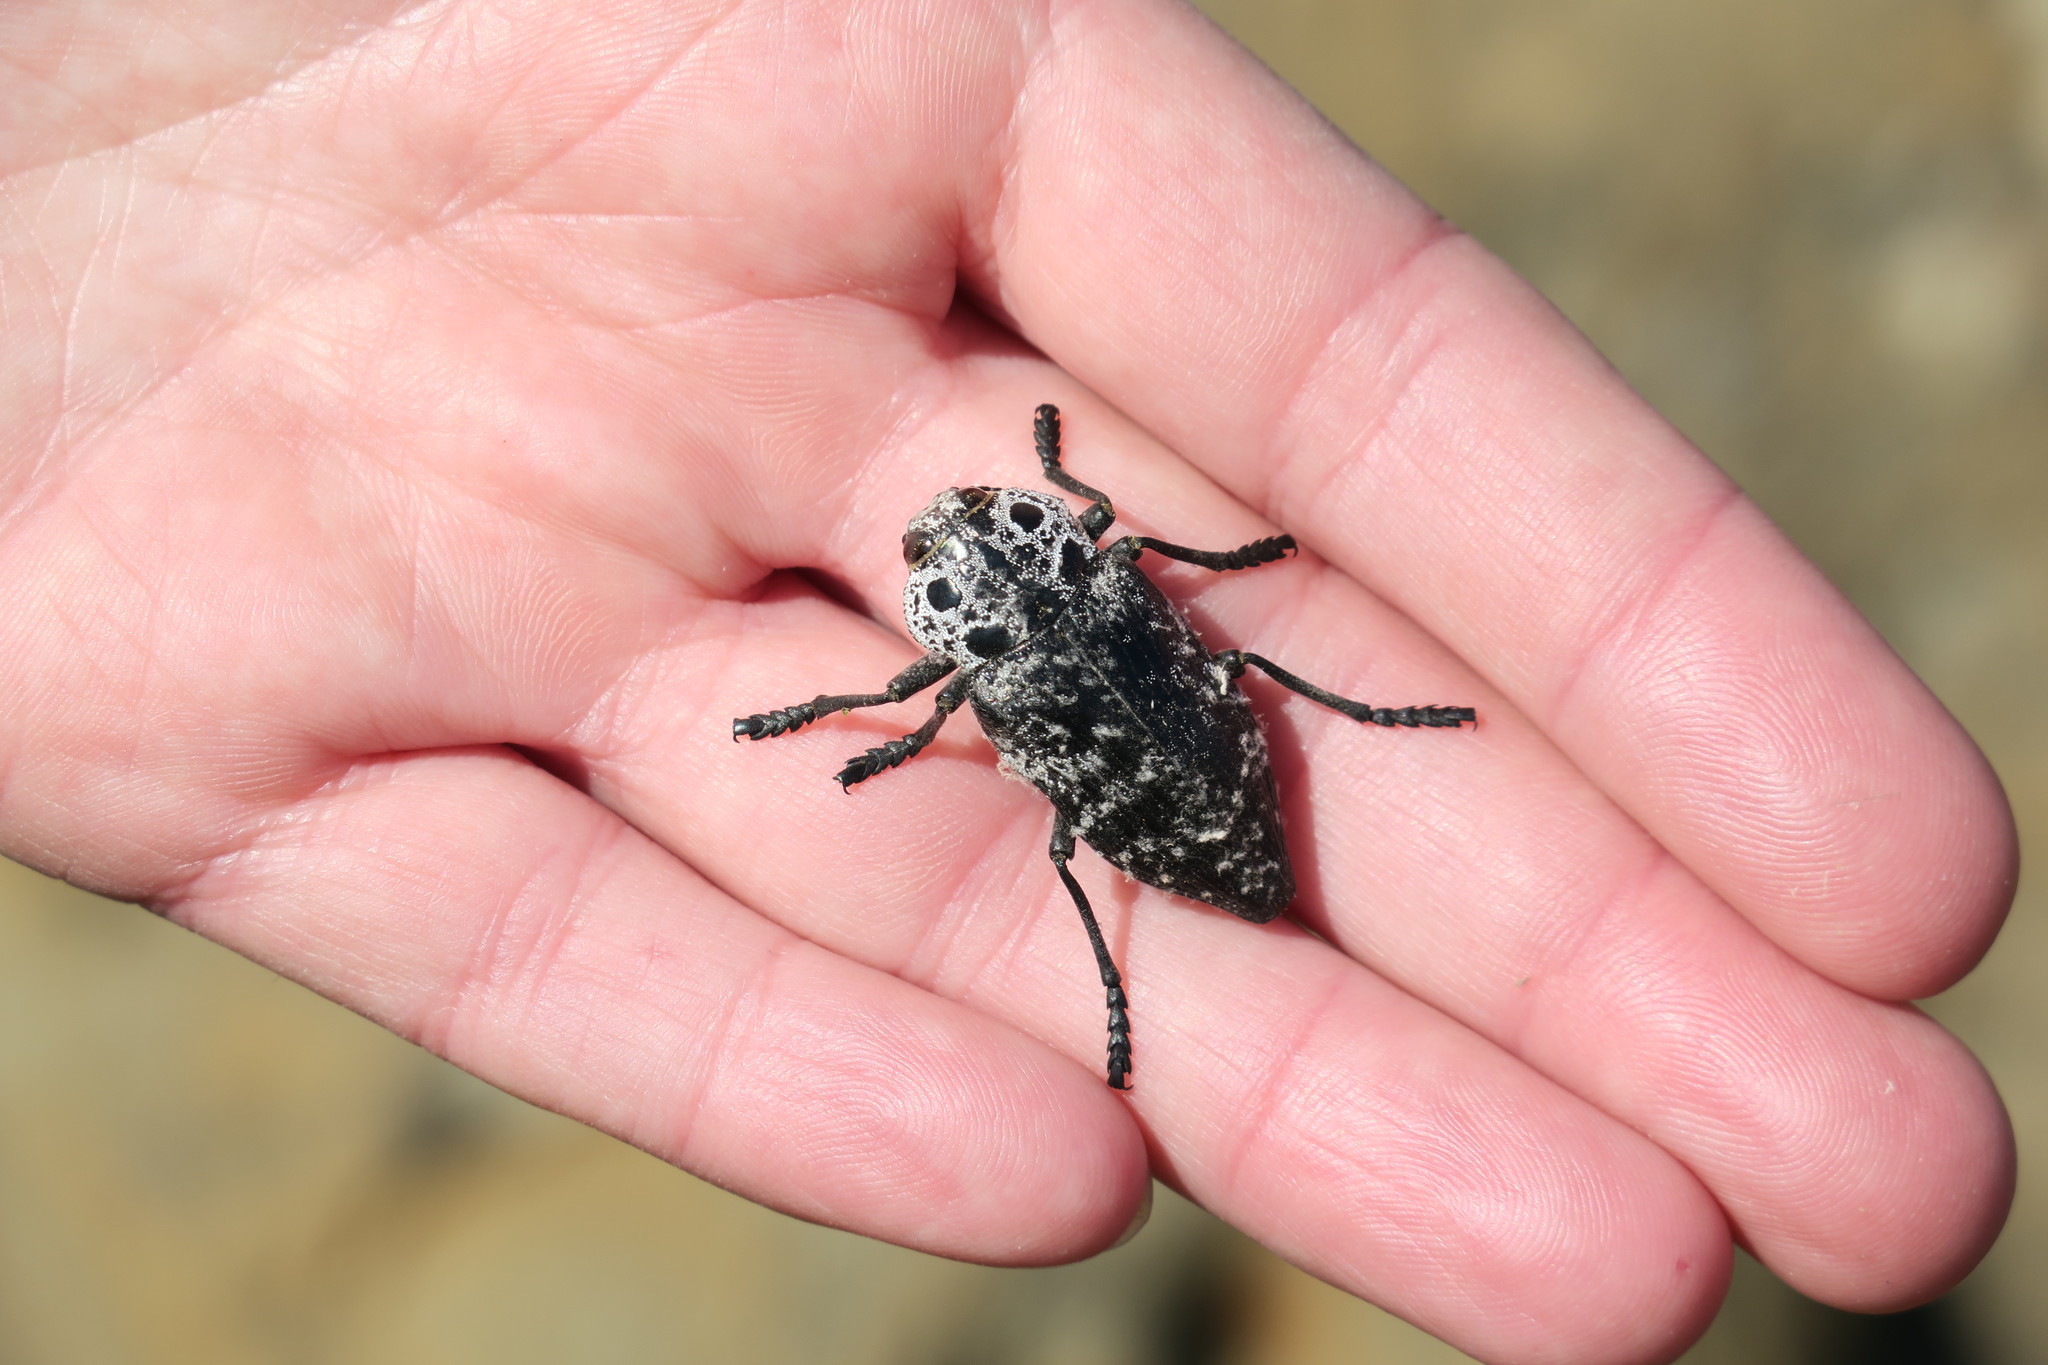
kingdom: Animalia
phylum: Arthropoda
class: Insecta
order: Coleoptera
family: Buprestidae
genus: Capnodis
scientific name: Capnodis cariosa
